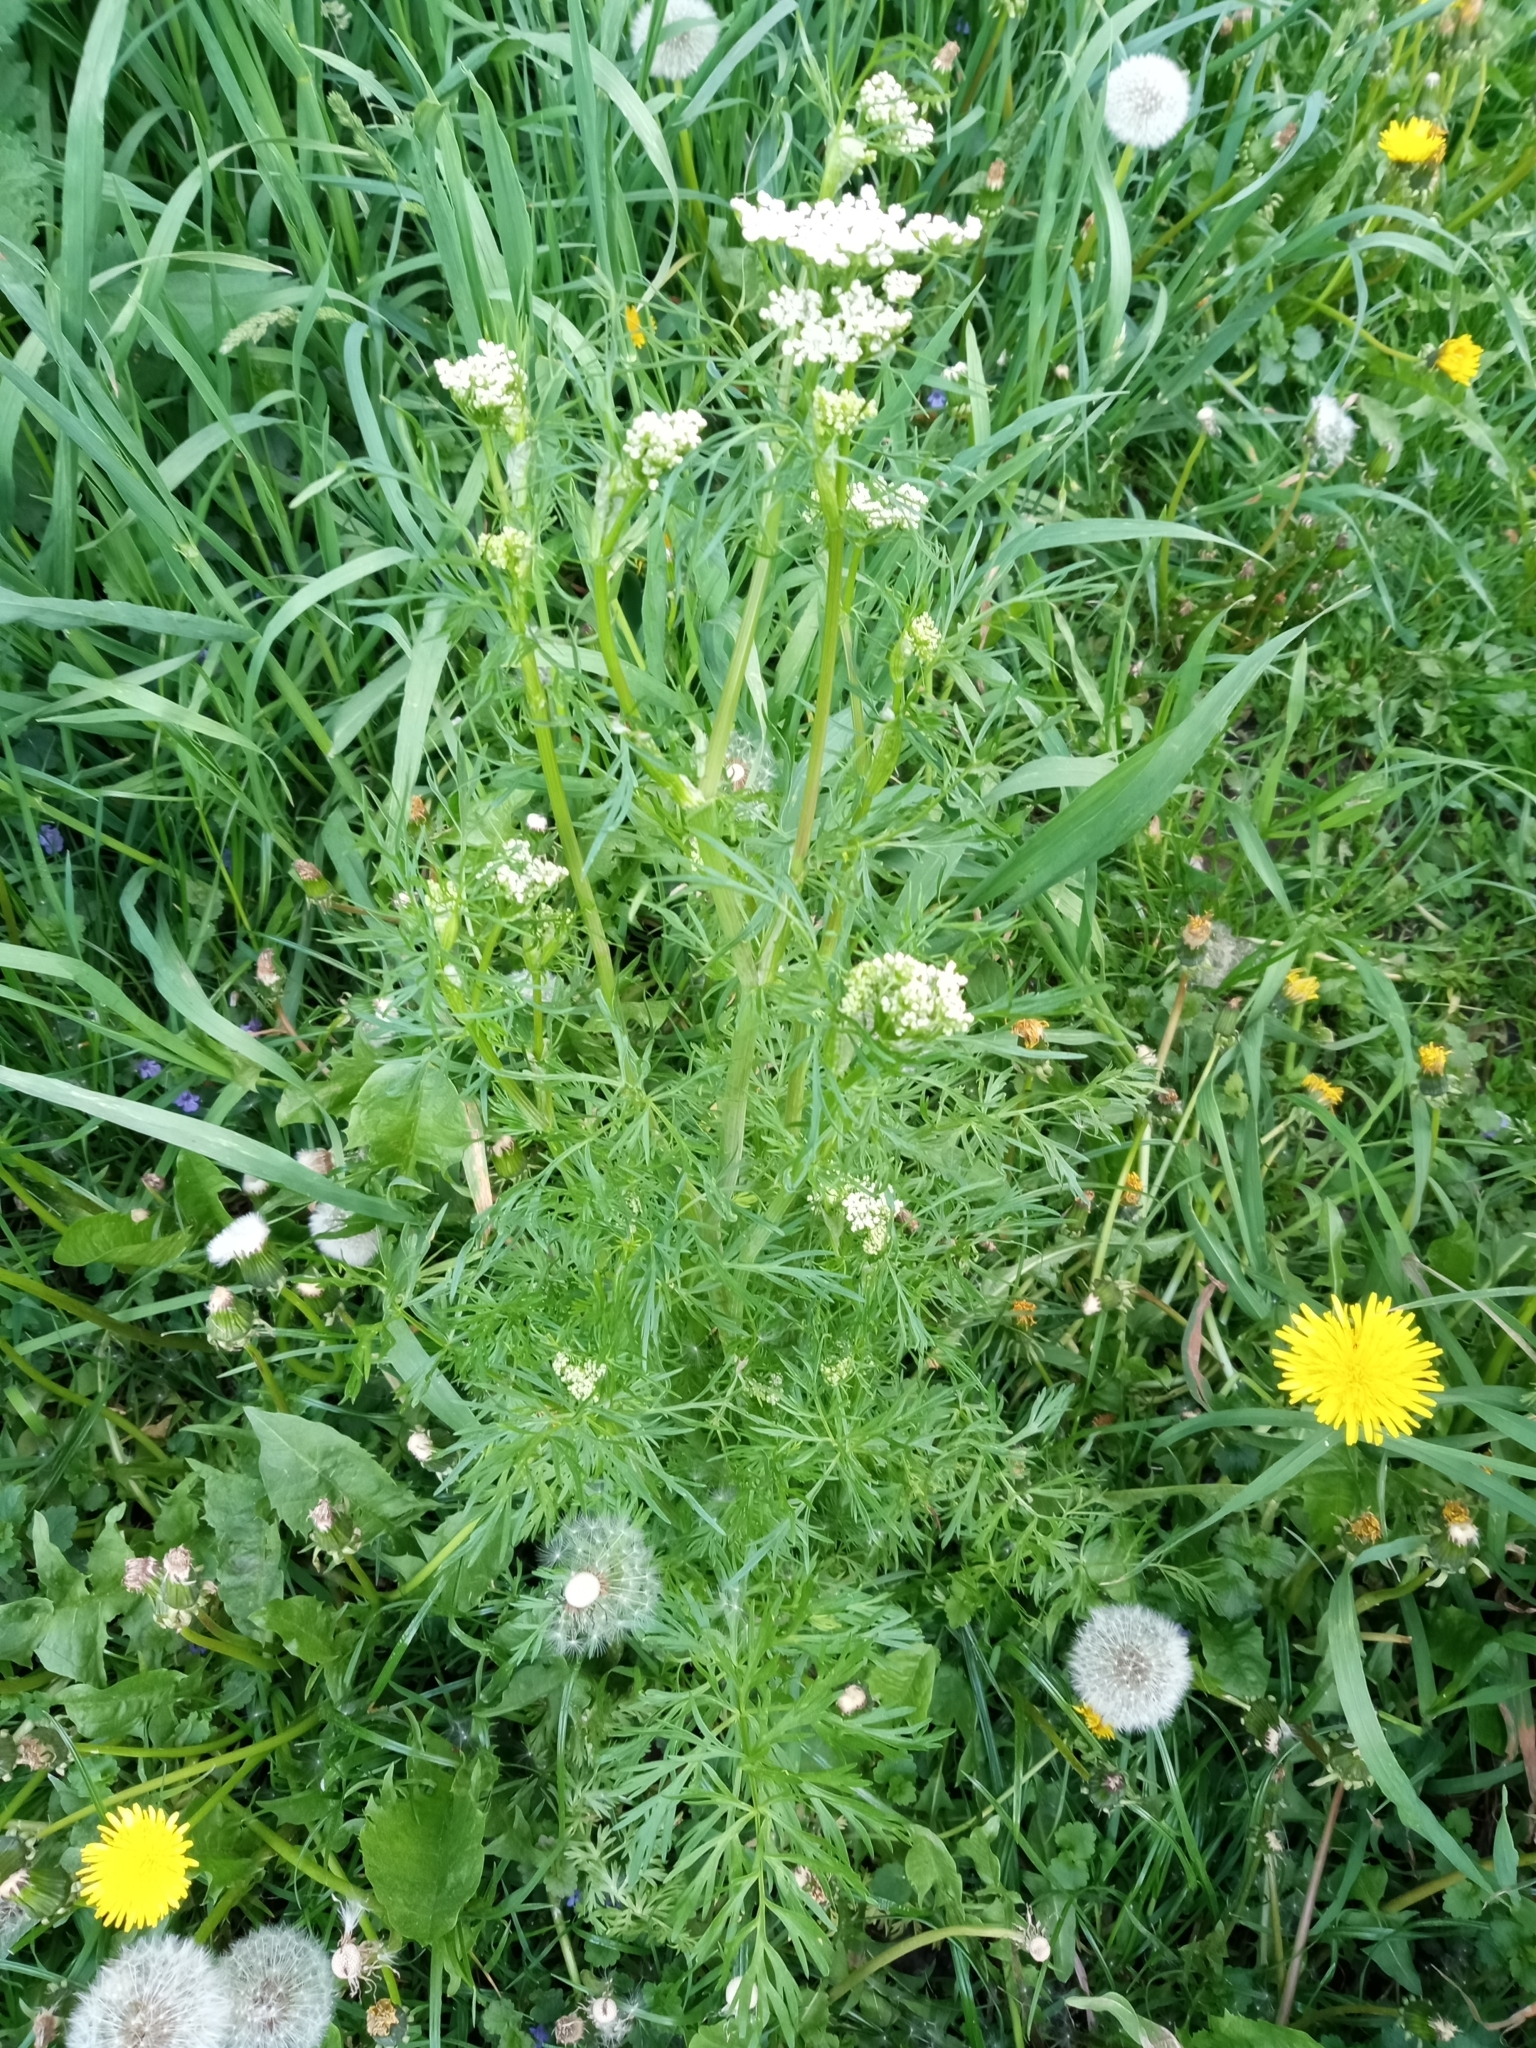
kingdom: Plantae
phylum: Tracheophyta
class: Magnoliopsida
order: Apiales
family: Apiaceae
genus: Carum
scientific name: Carum carvi
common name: Caraway
